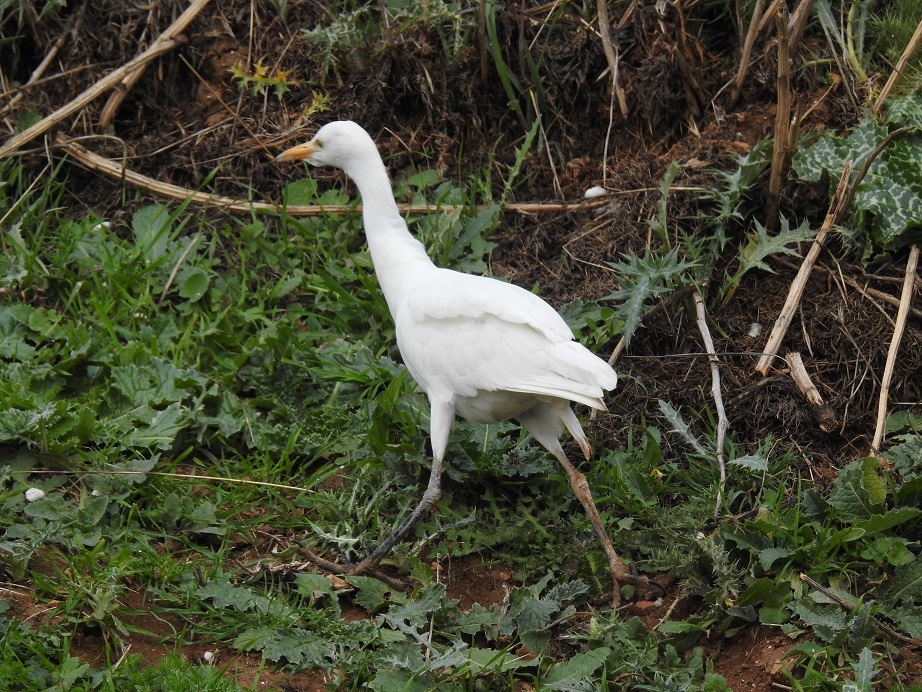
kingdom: Animalia
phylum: Chordata
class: Aves
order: Pelecaniformes
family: Ardeidae
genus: Bubulcus
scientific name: Bubulcus ibis
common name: Cattle egret
